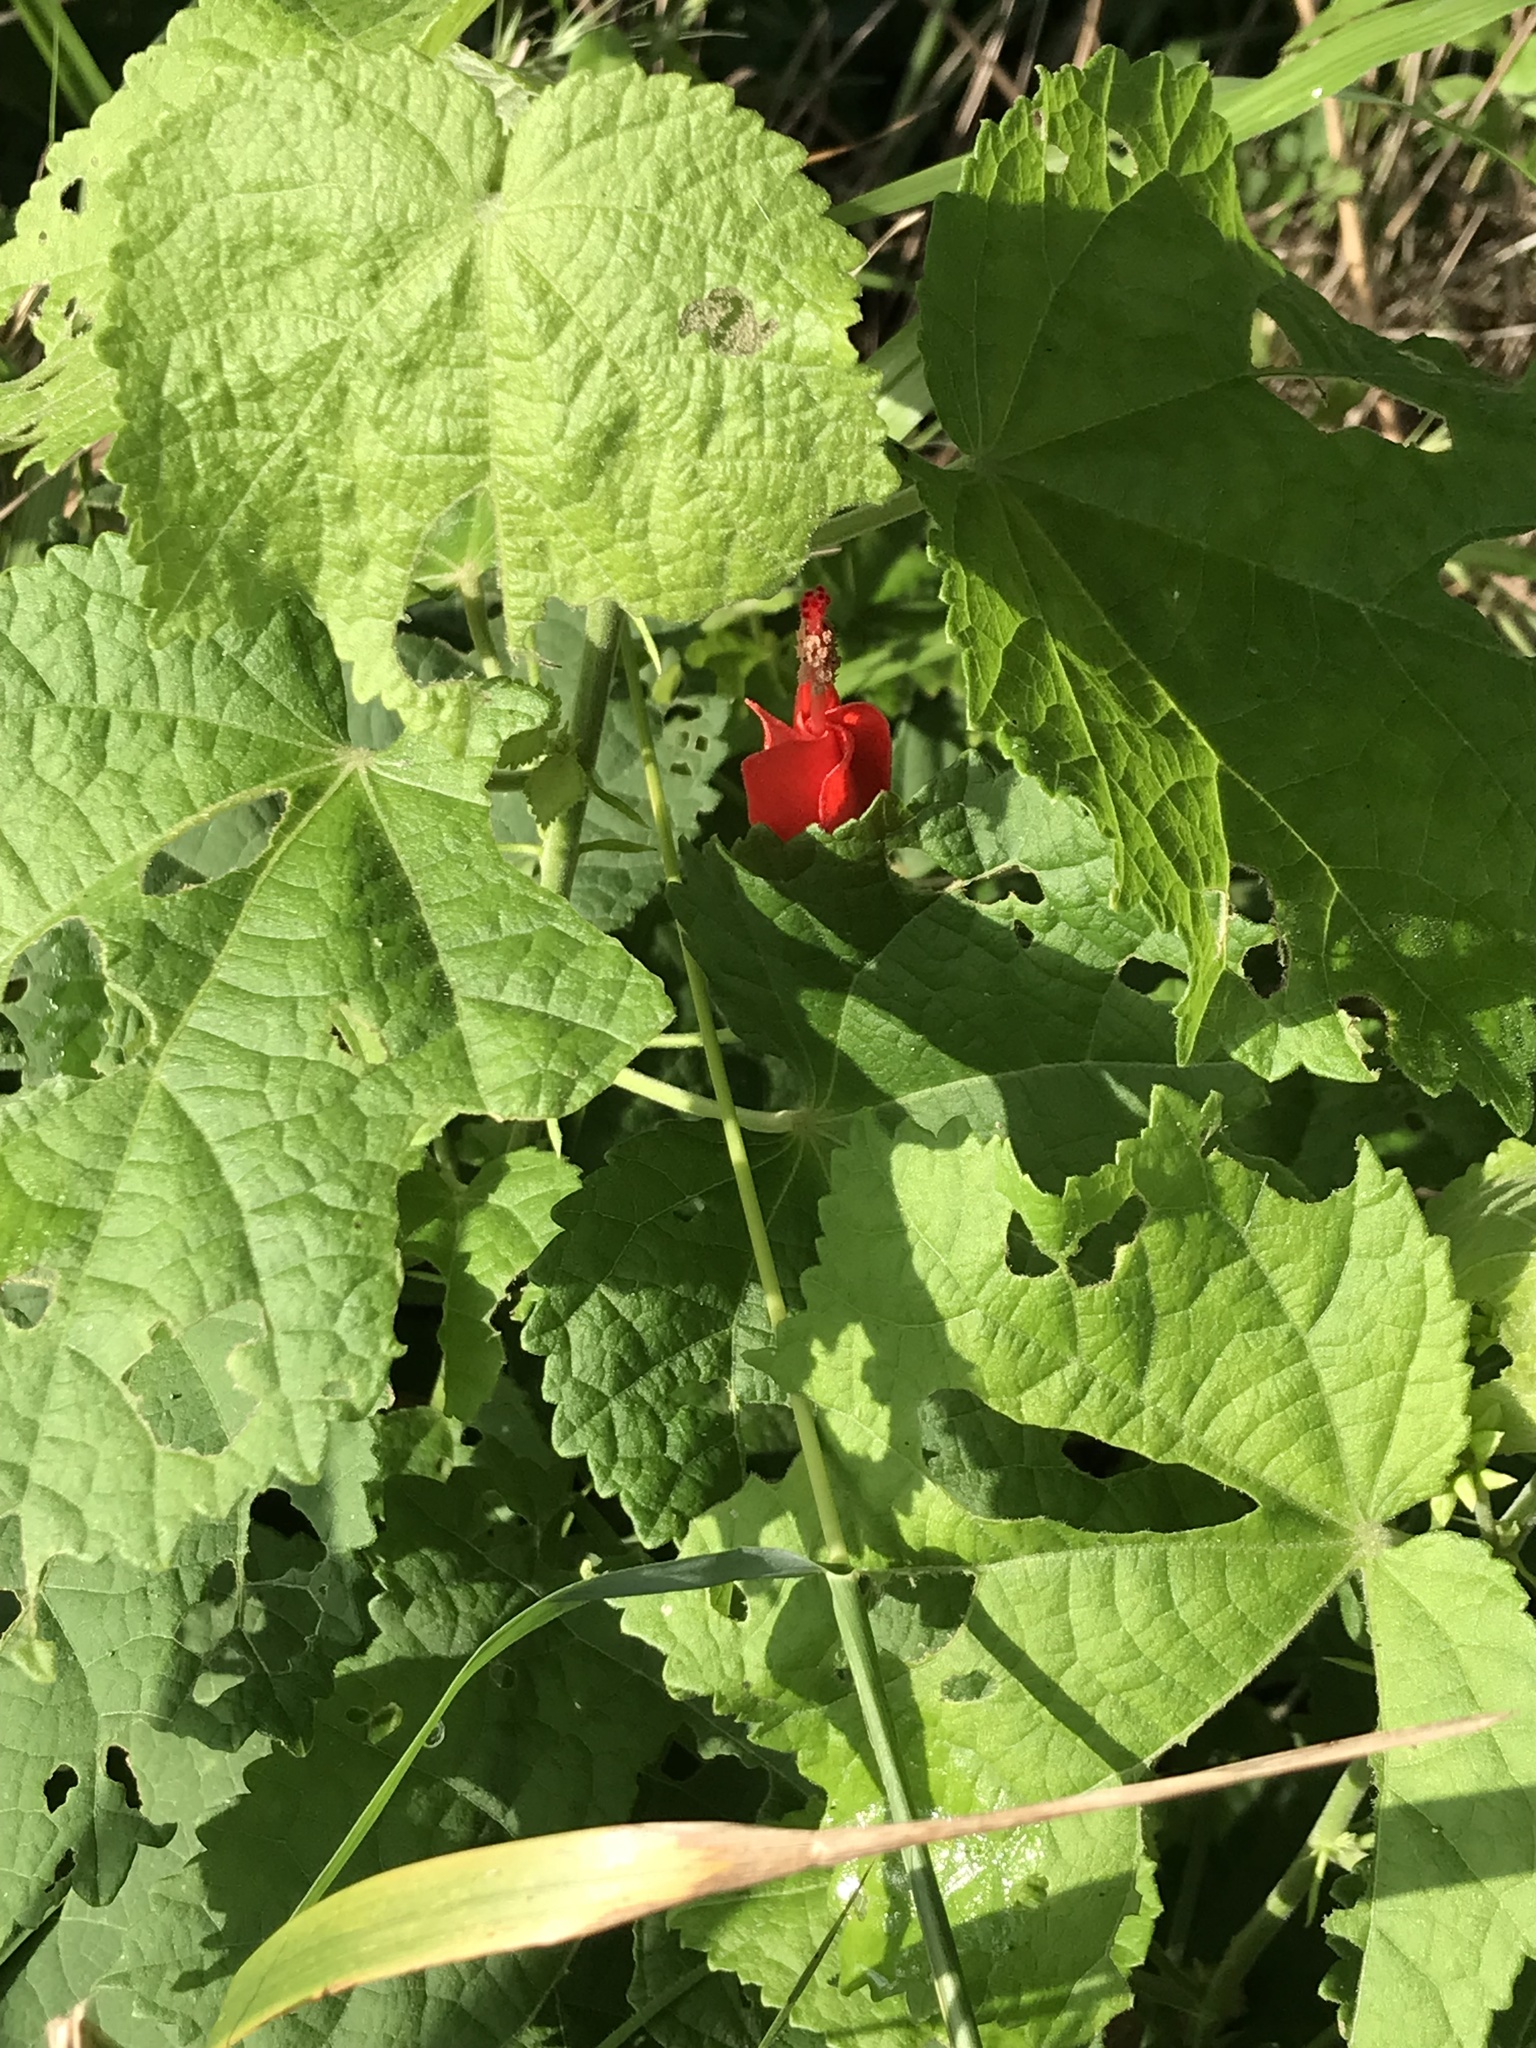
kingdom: Plantae
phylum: Tracheophyta
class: Magnoliopsida
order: Malvales
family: Malvaceae
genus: Malvaviscus
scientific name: Malvaviscus arboreus
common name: Wax mallow
